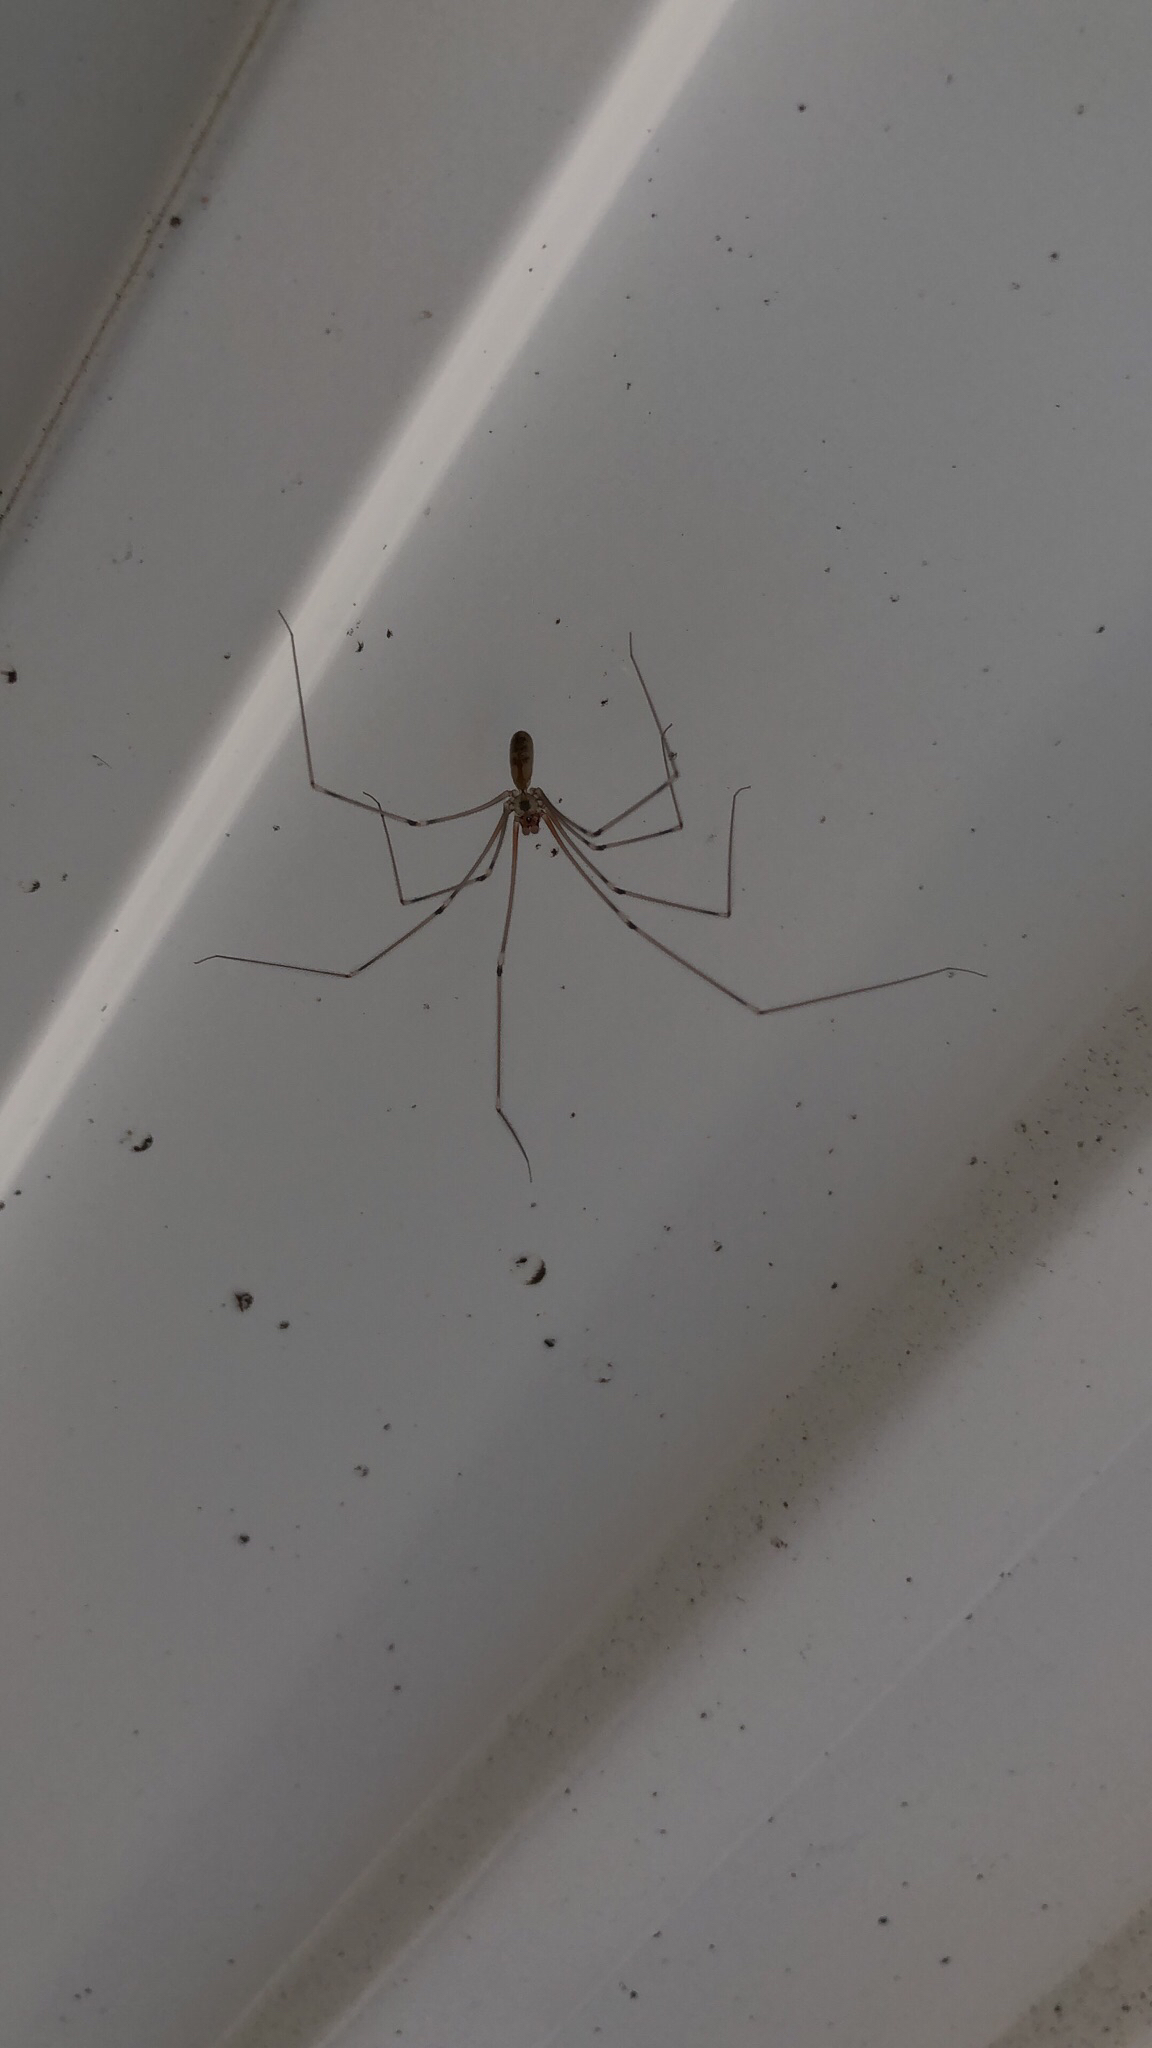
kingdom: Animalia
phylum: Arthropoda
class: Arachnida
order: Araneae
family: Pholcidae
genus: Pholcus
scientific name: Pholcus phalangioides
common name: Longbodied cellar spider
